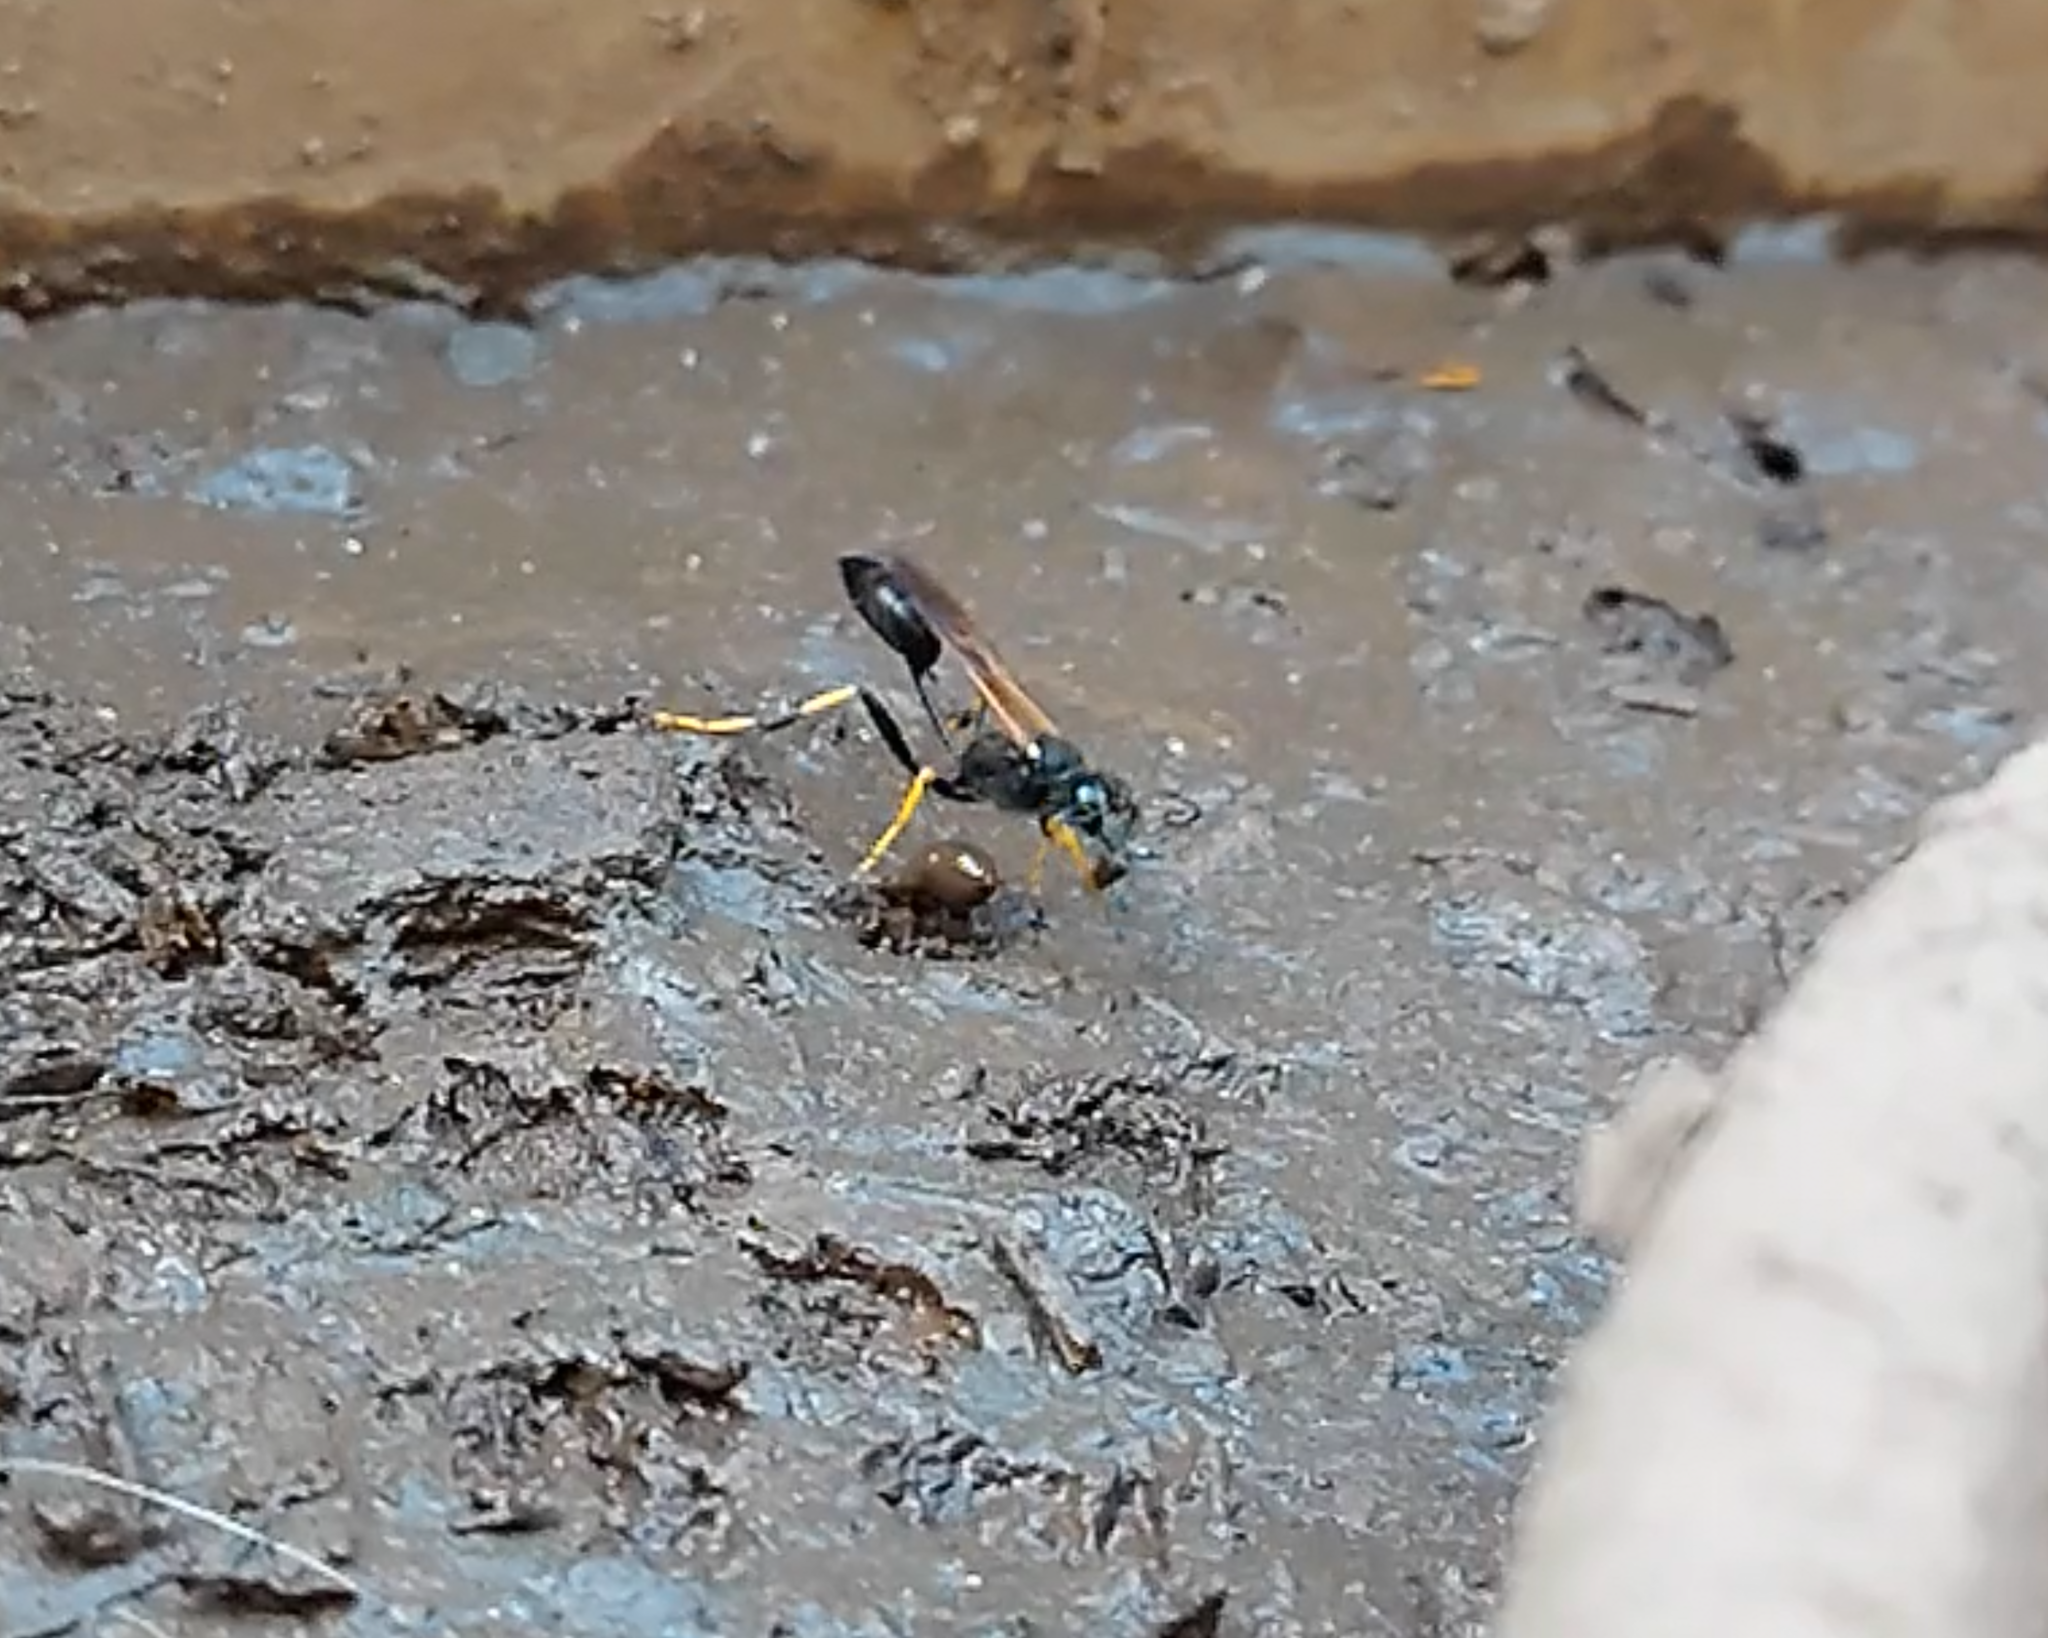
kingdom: Animalia
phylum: Arthropoda
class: Insecta
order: Hymenoptera
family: Sphecidae
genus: Sceliphron
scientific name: Sceliphron caementarium
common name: Mud dauber
